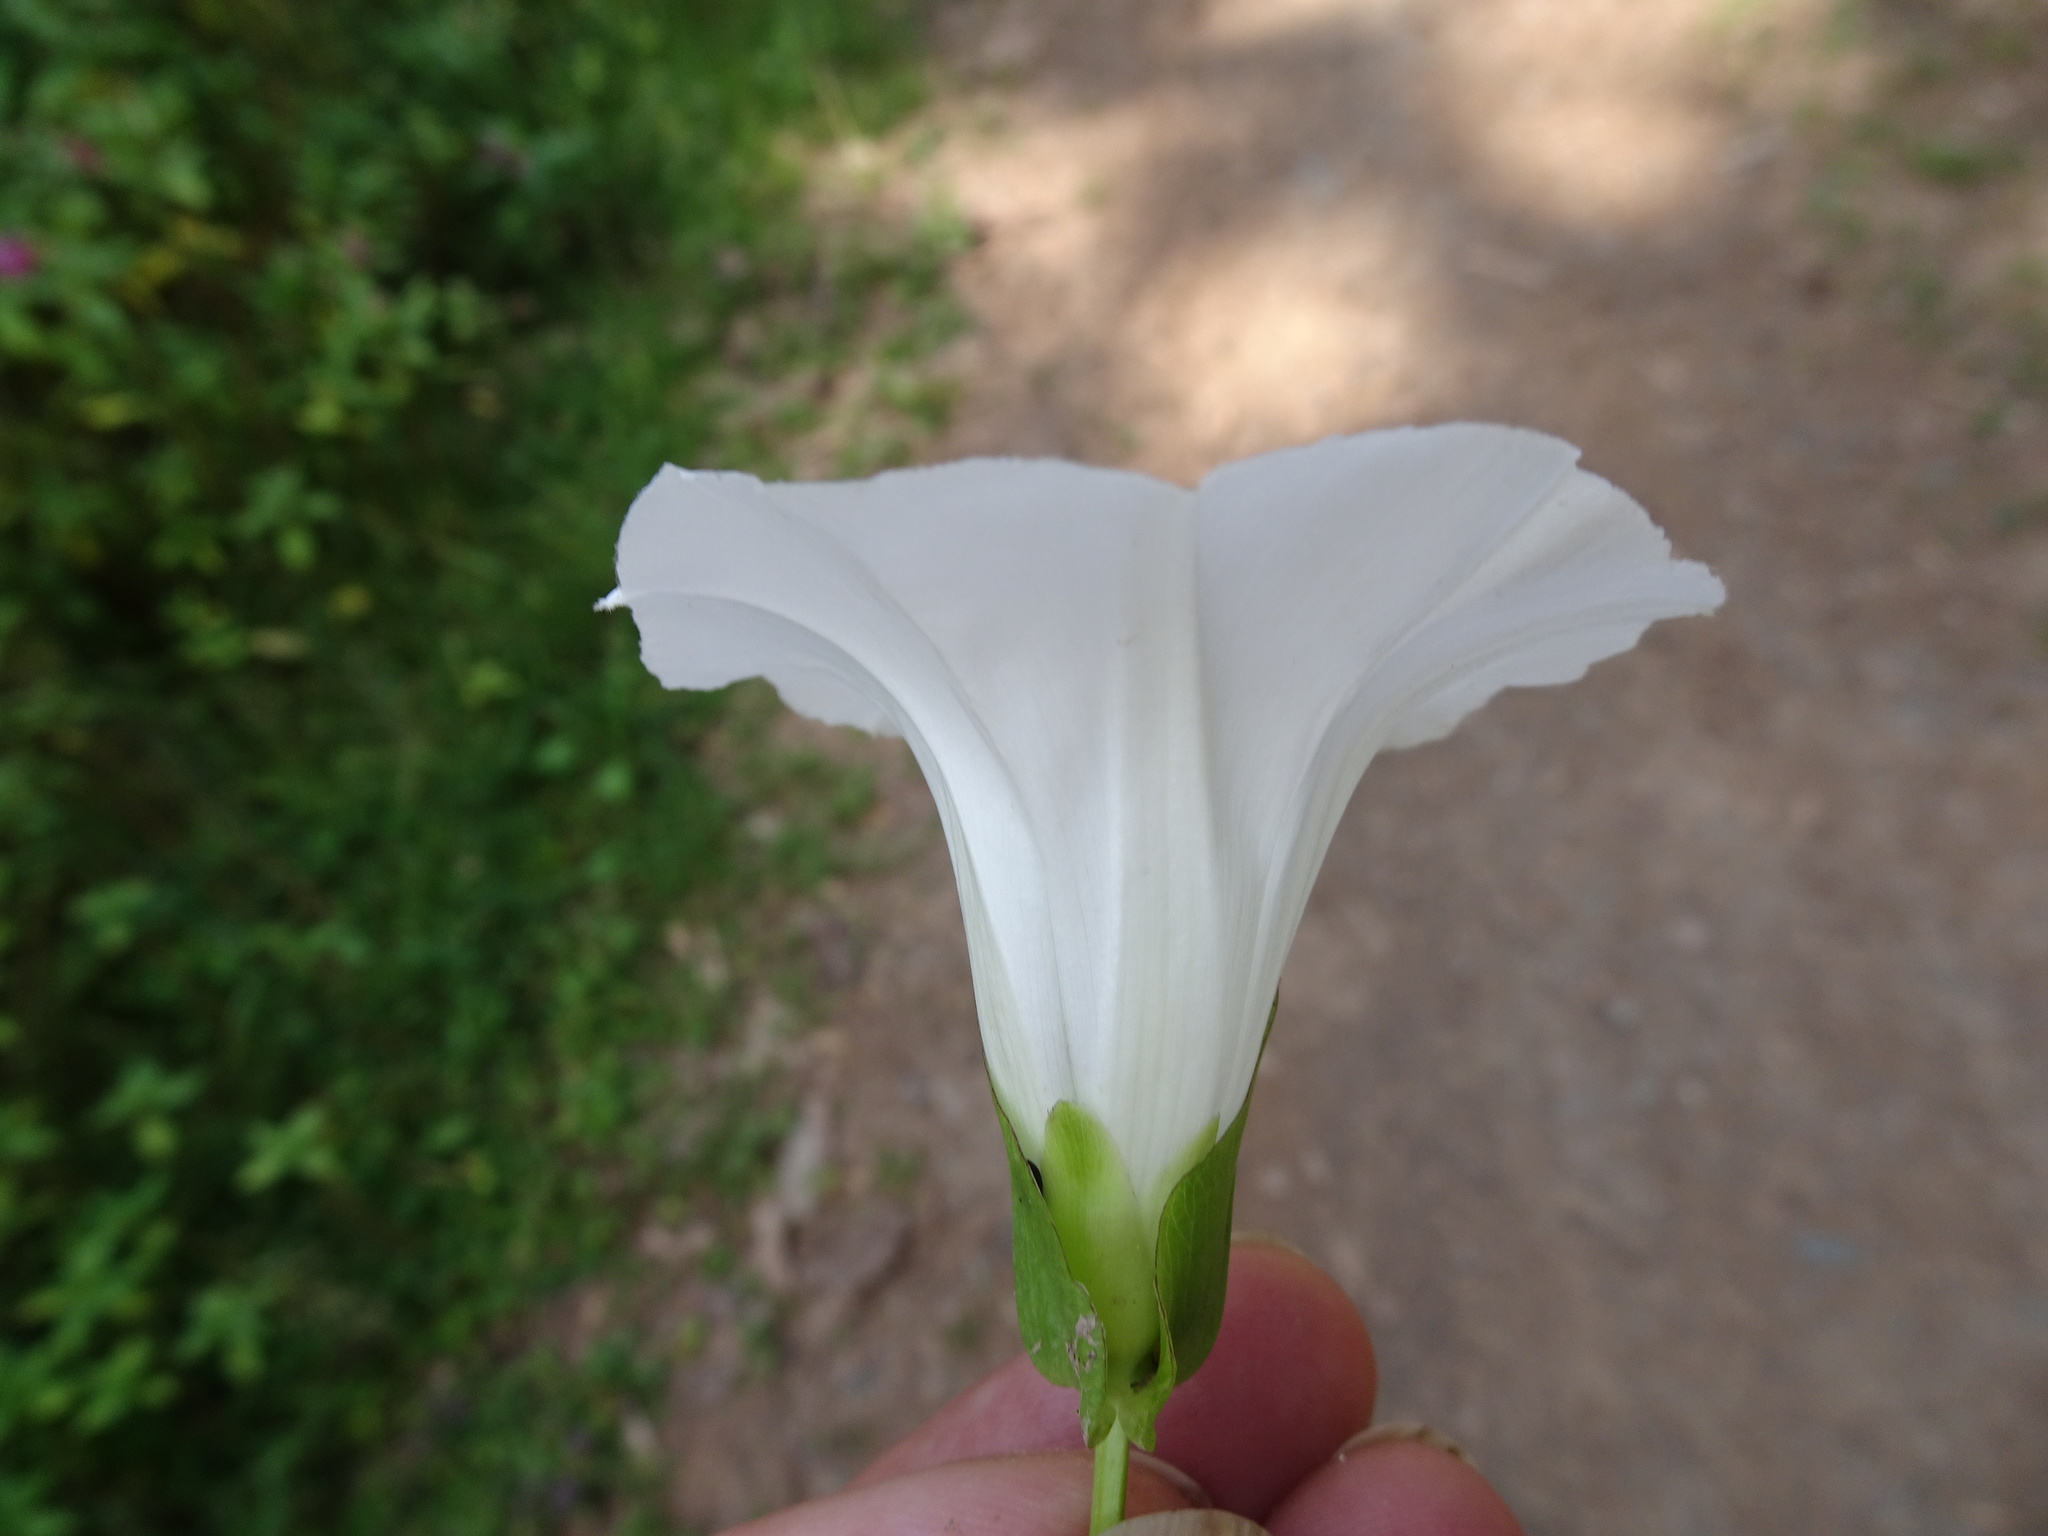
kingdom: Plantae
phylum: Tracheophyta
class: Magnoliopsida
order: Solanales
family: Convolvulaceae
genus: Calystegia
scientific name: Calystegia sepium
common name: Hedge bindweed
